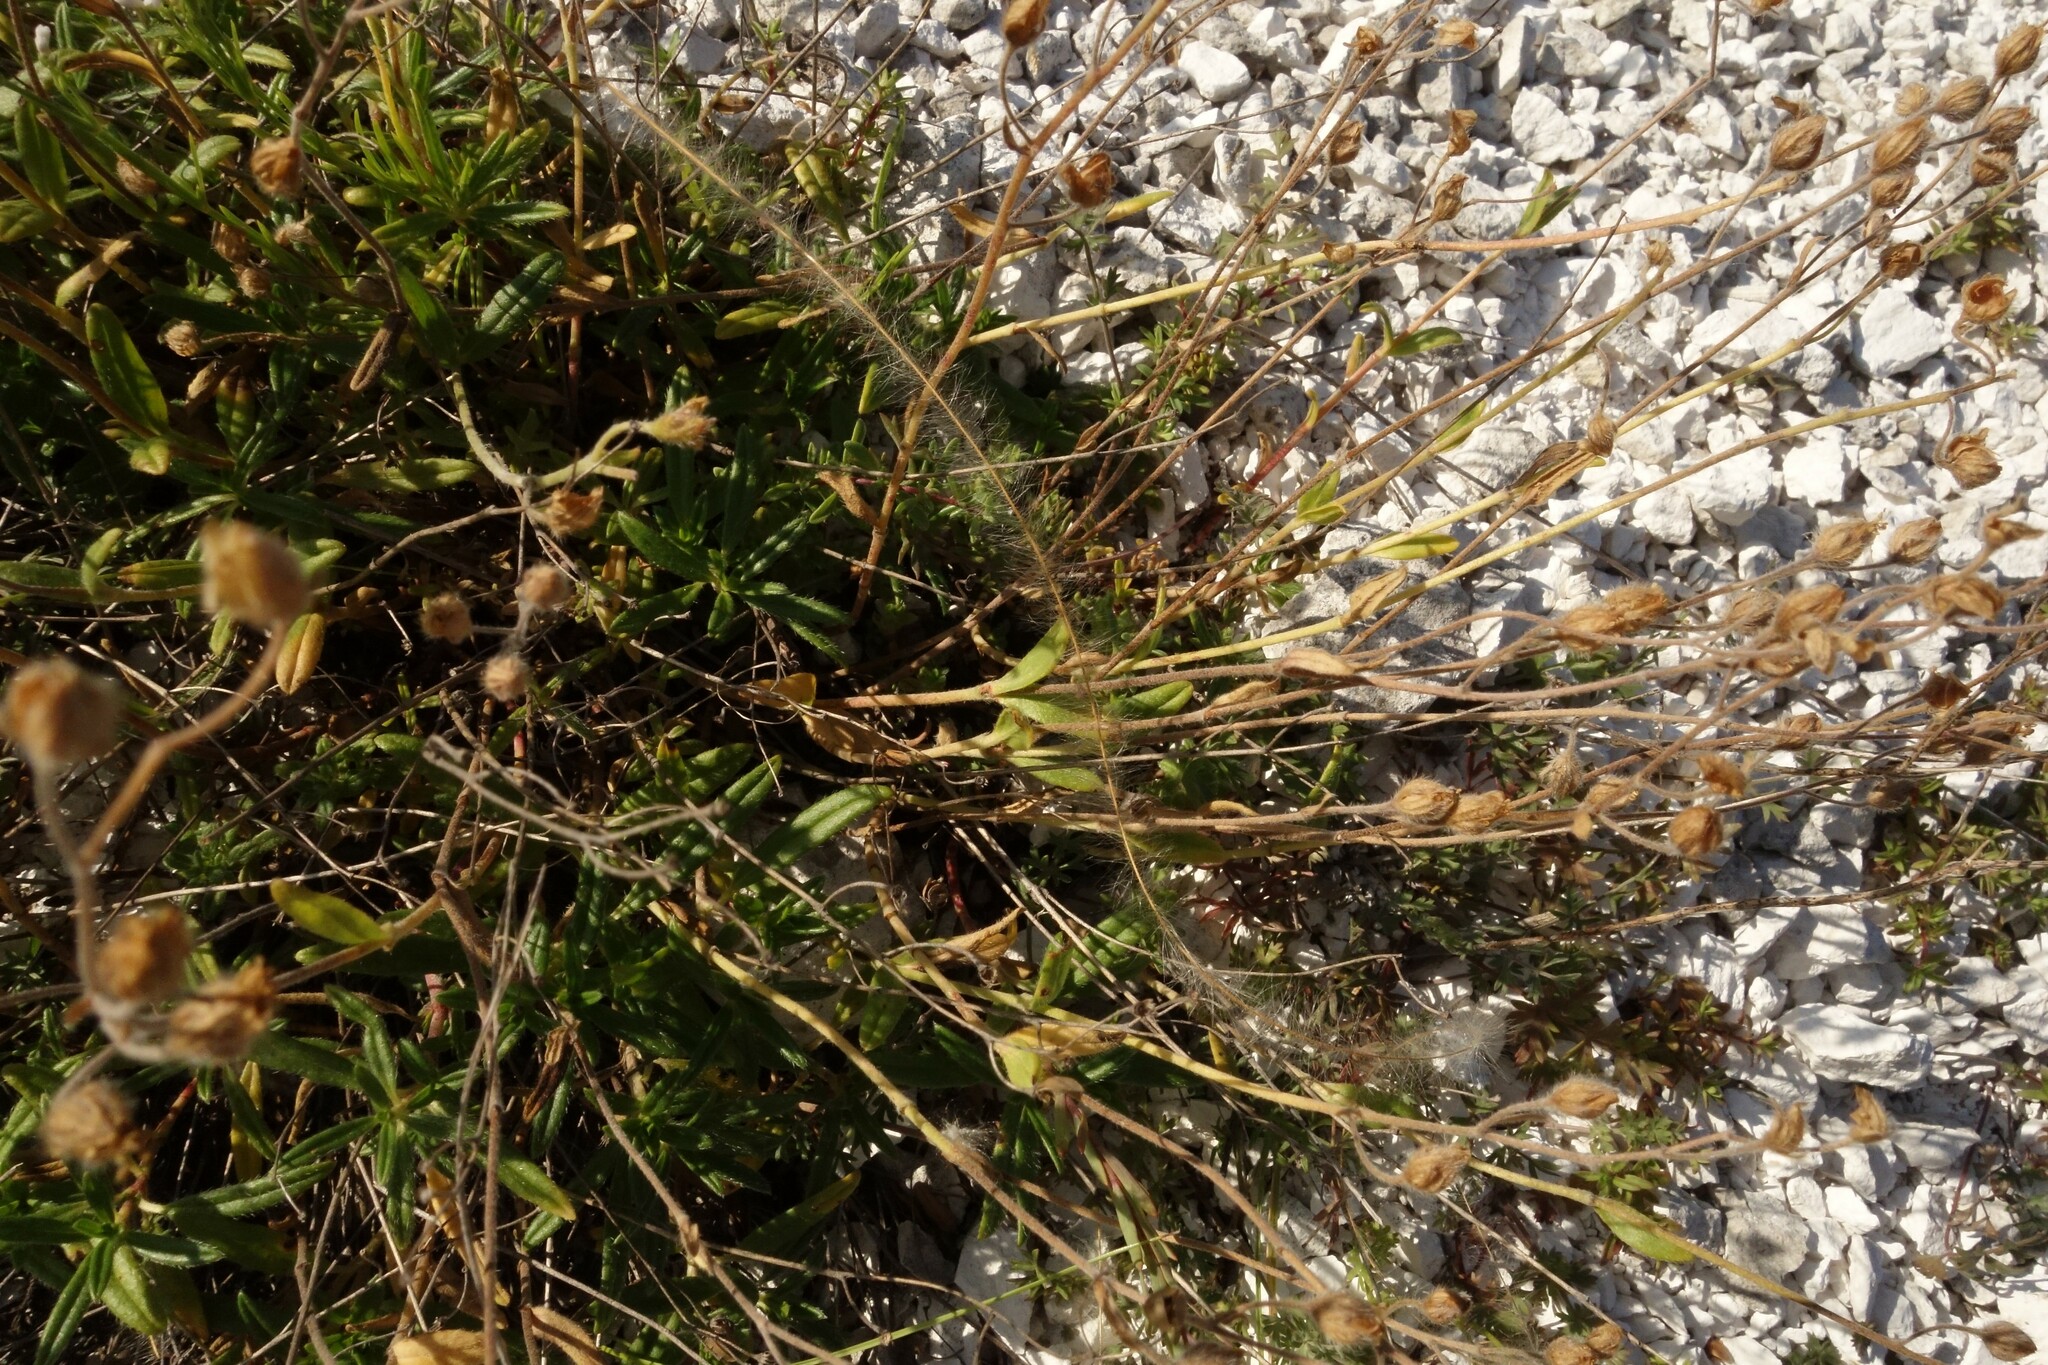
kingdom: Plantae
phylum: Tracheophyta
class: Magnoliopsida
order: Malvales
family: Cistaceae
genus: Helianthemum
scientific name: Helianthemum rupifragum
